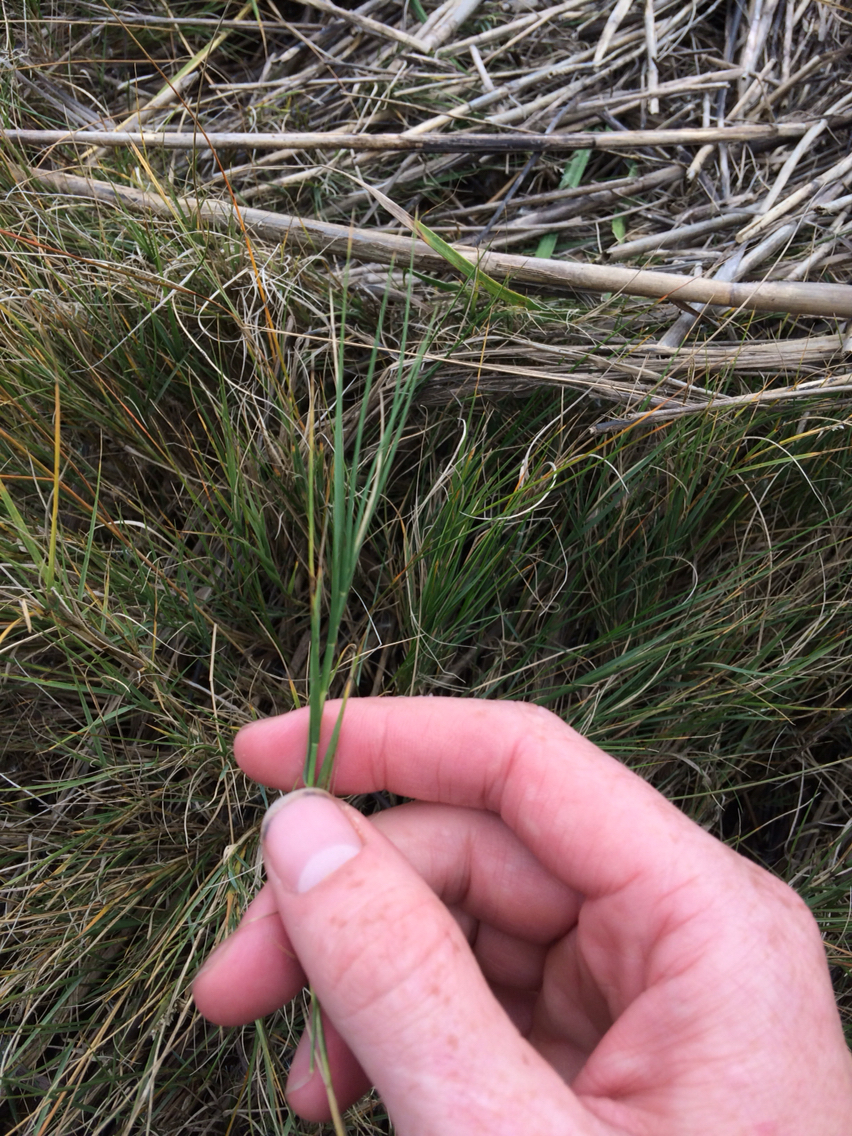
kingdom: Plantae
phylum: Tracheophyta
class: Liliopsida
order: Poales
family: Poaceae
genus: Distichlis
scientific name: Distichlis spicata
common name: Saltgrass
